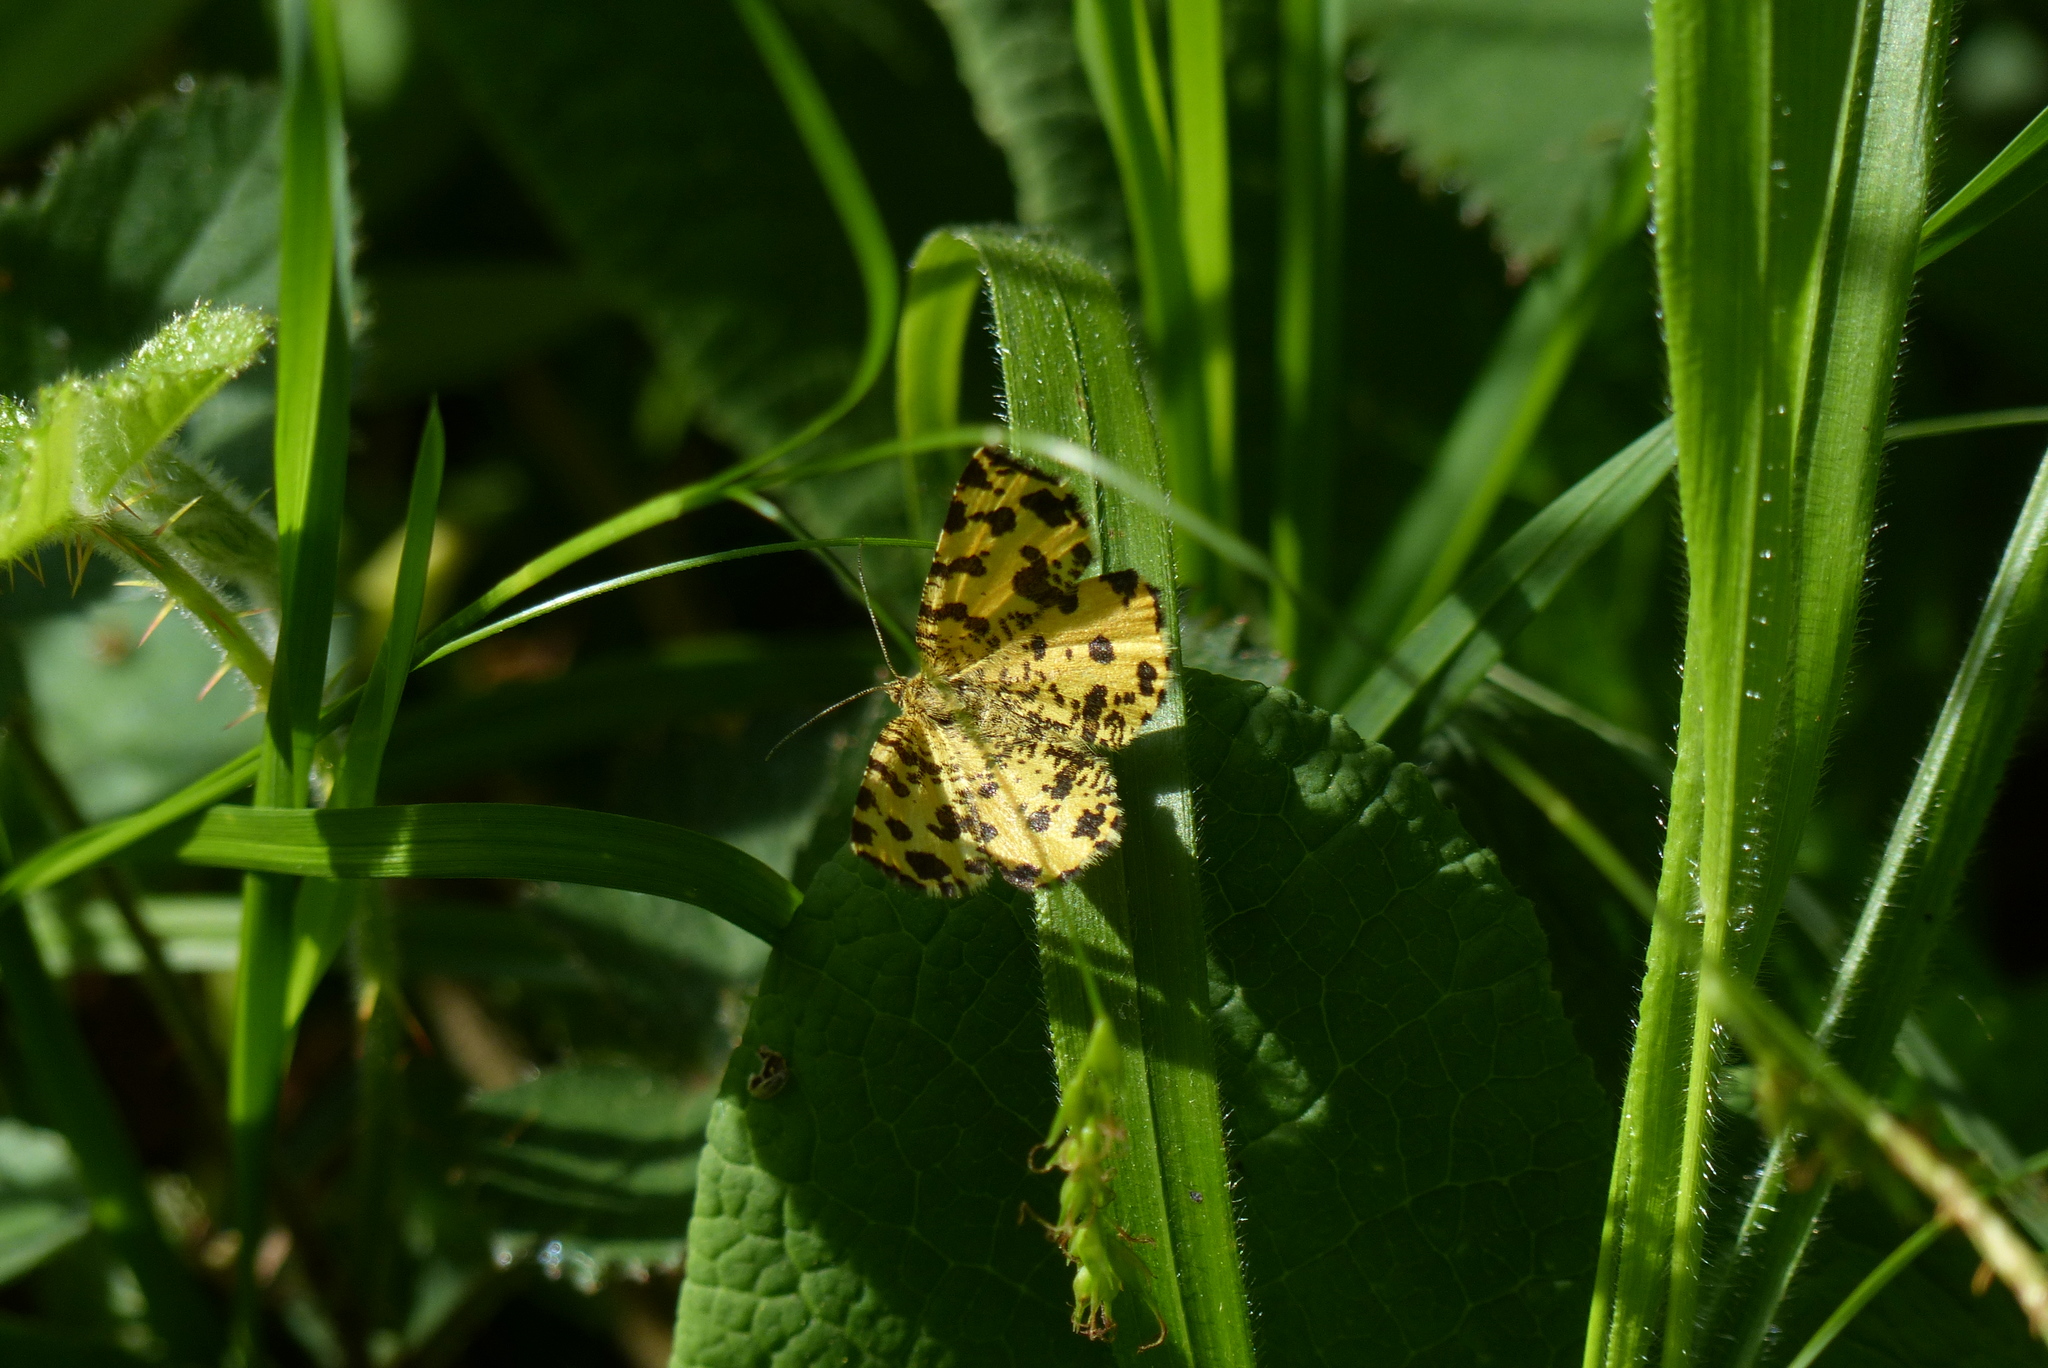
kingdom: Animalia
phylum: Arthropoda
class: Insecta
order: Lepidoptera
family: Geometridae
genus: Pseudopanthera
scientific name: Pseudopanthera macularia
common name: Speckled yellow
